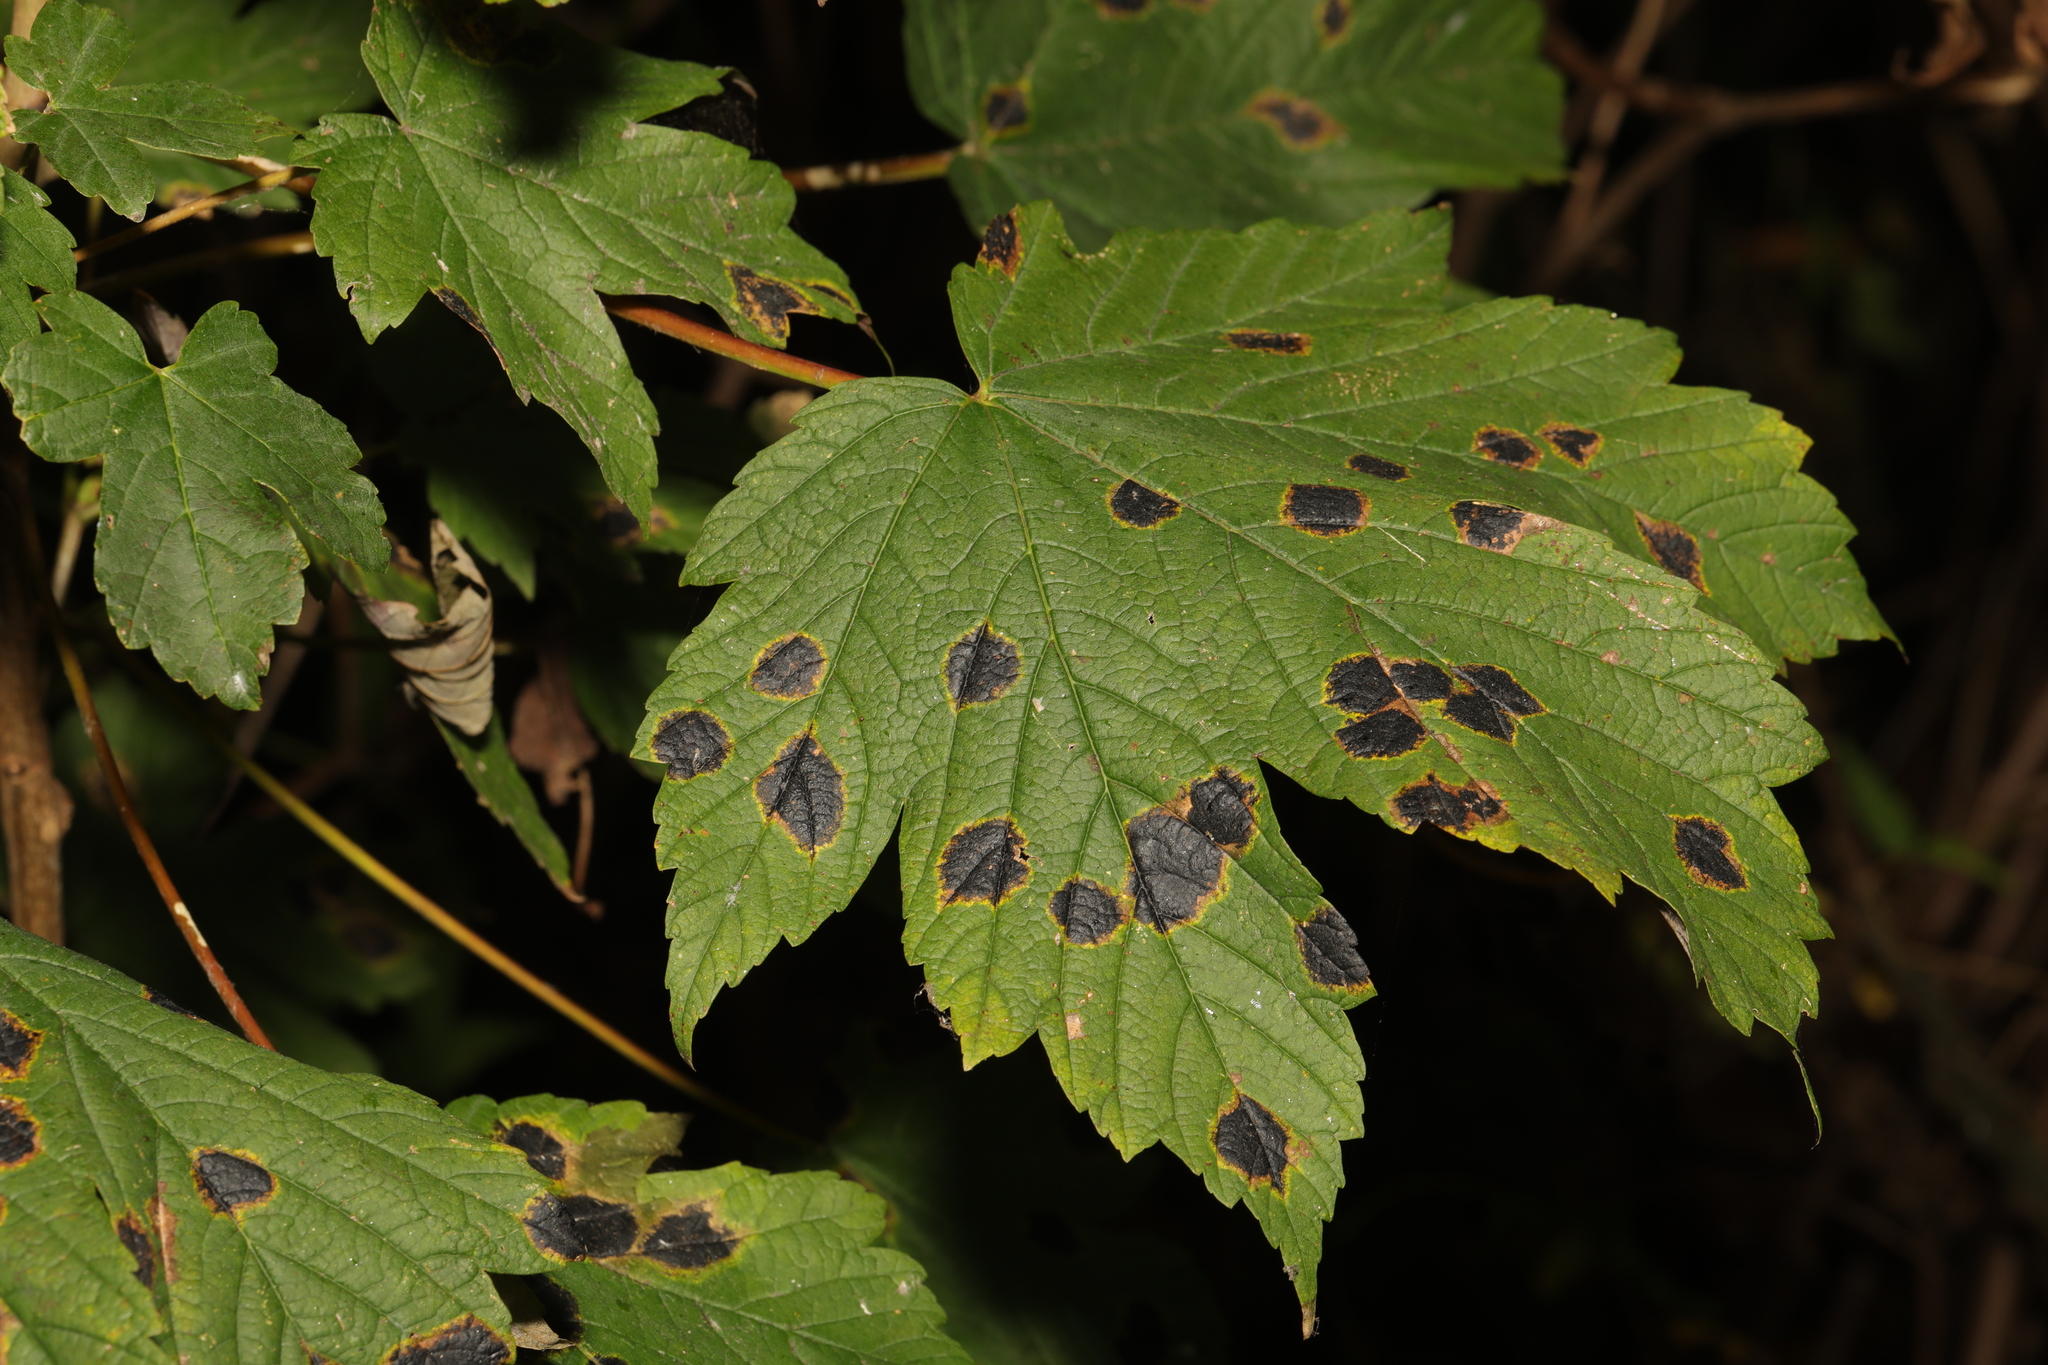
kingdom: Plantae
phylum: Tracheophyta
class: Magnoliopsida
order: Sapindales
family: Sapindaceae
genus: Acer
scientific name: Acer pseudoplatanus
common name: Sycamore
